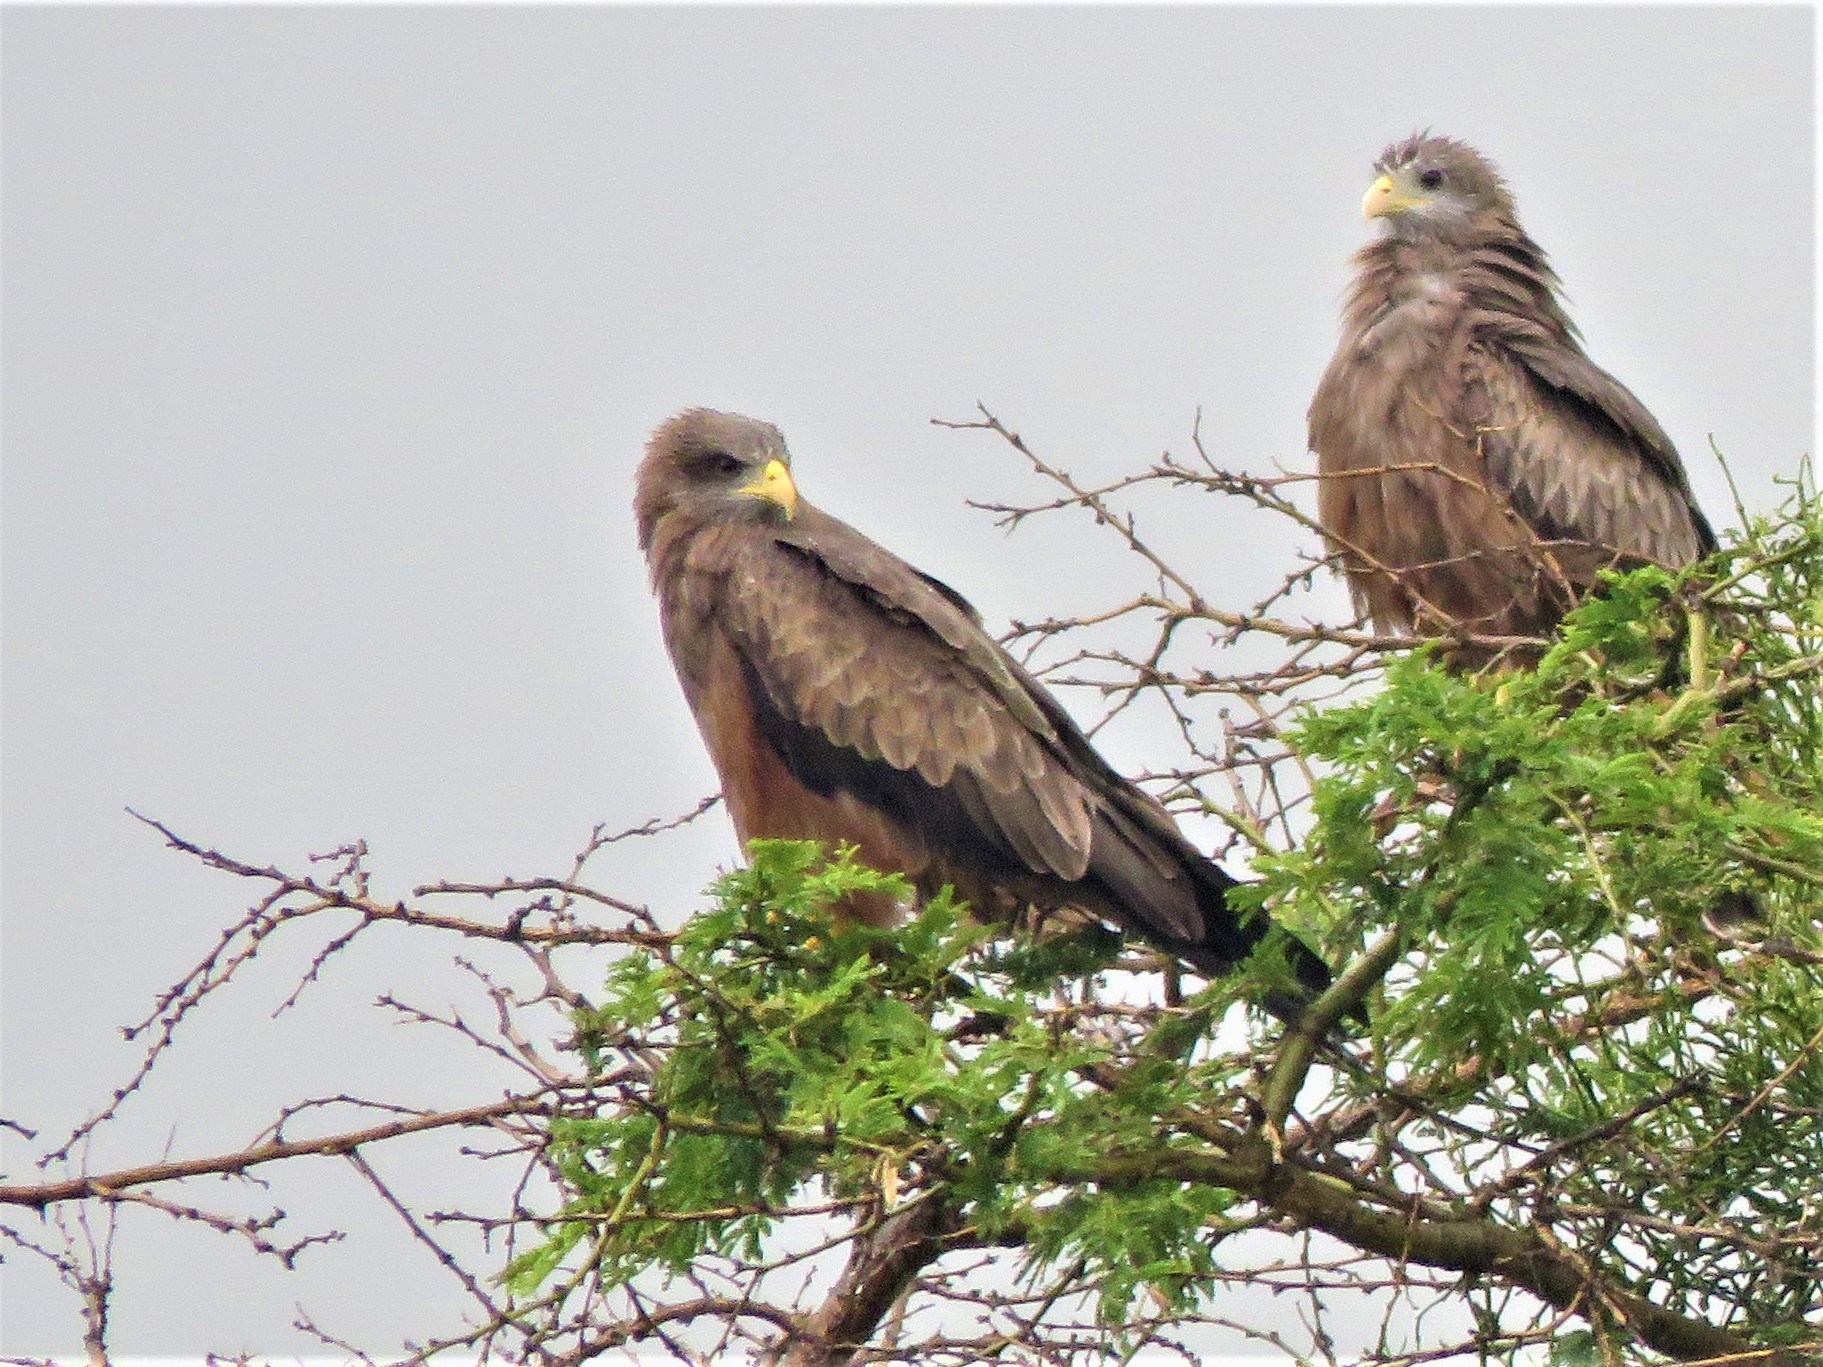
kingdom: Animalia
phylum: Chordata
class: Aves
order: Accipitriformes
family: Accipitridae
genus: Milvus
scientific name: Milvus migrans
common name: Black kite
